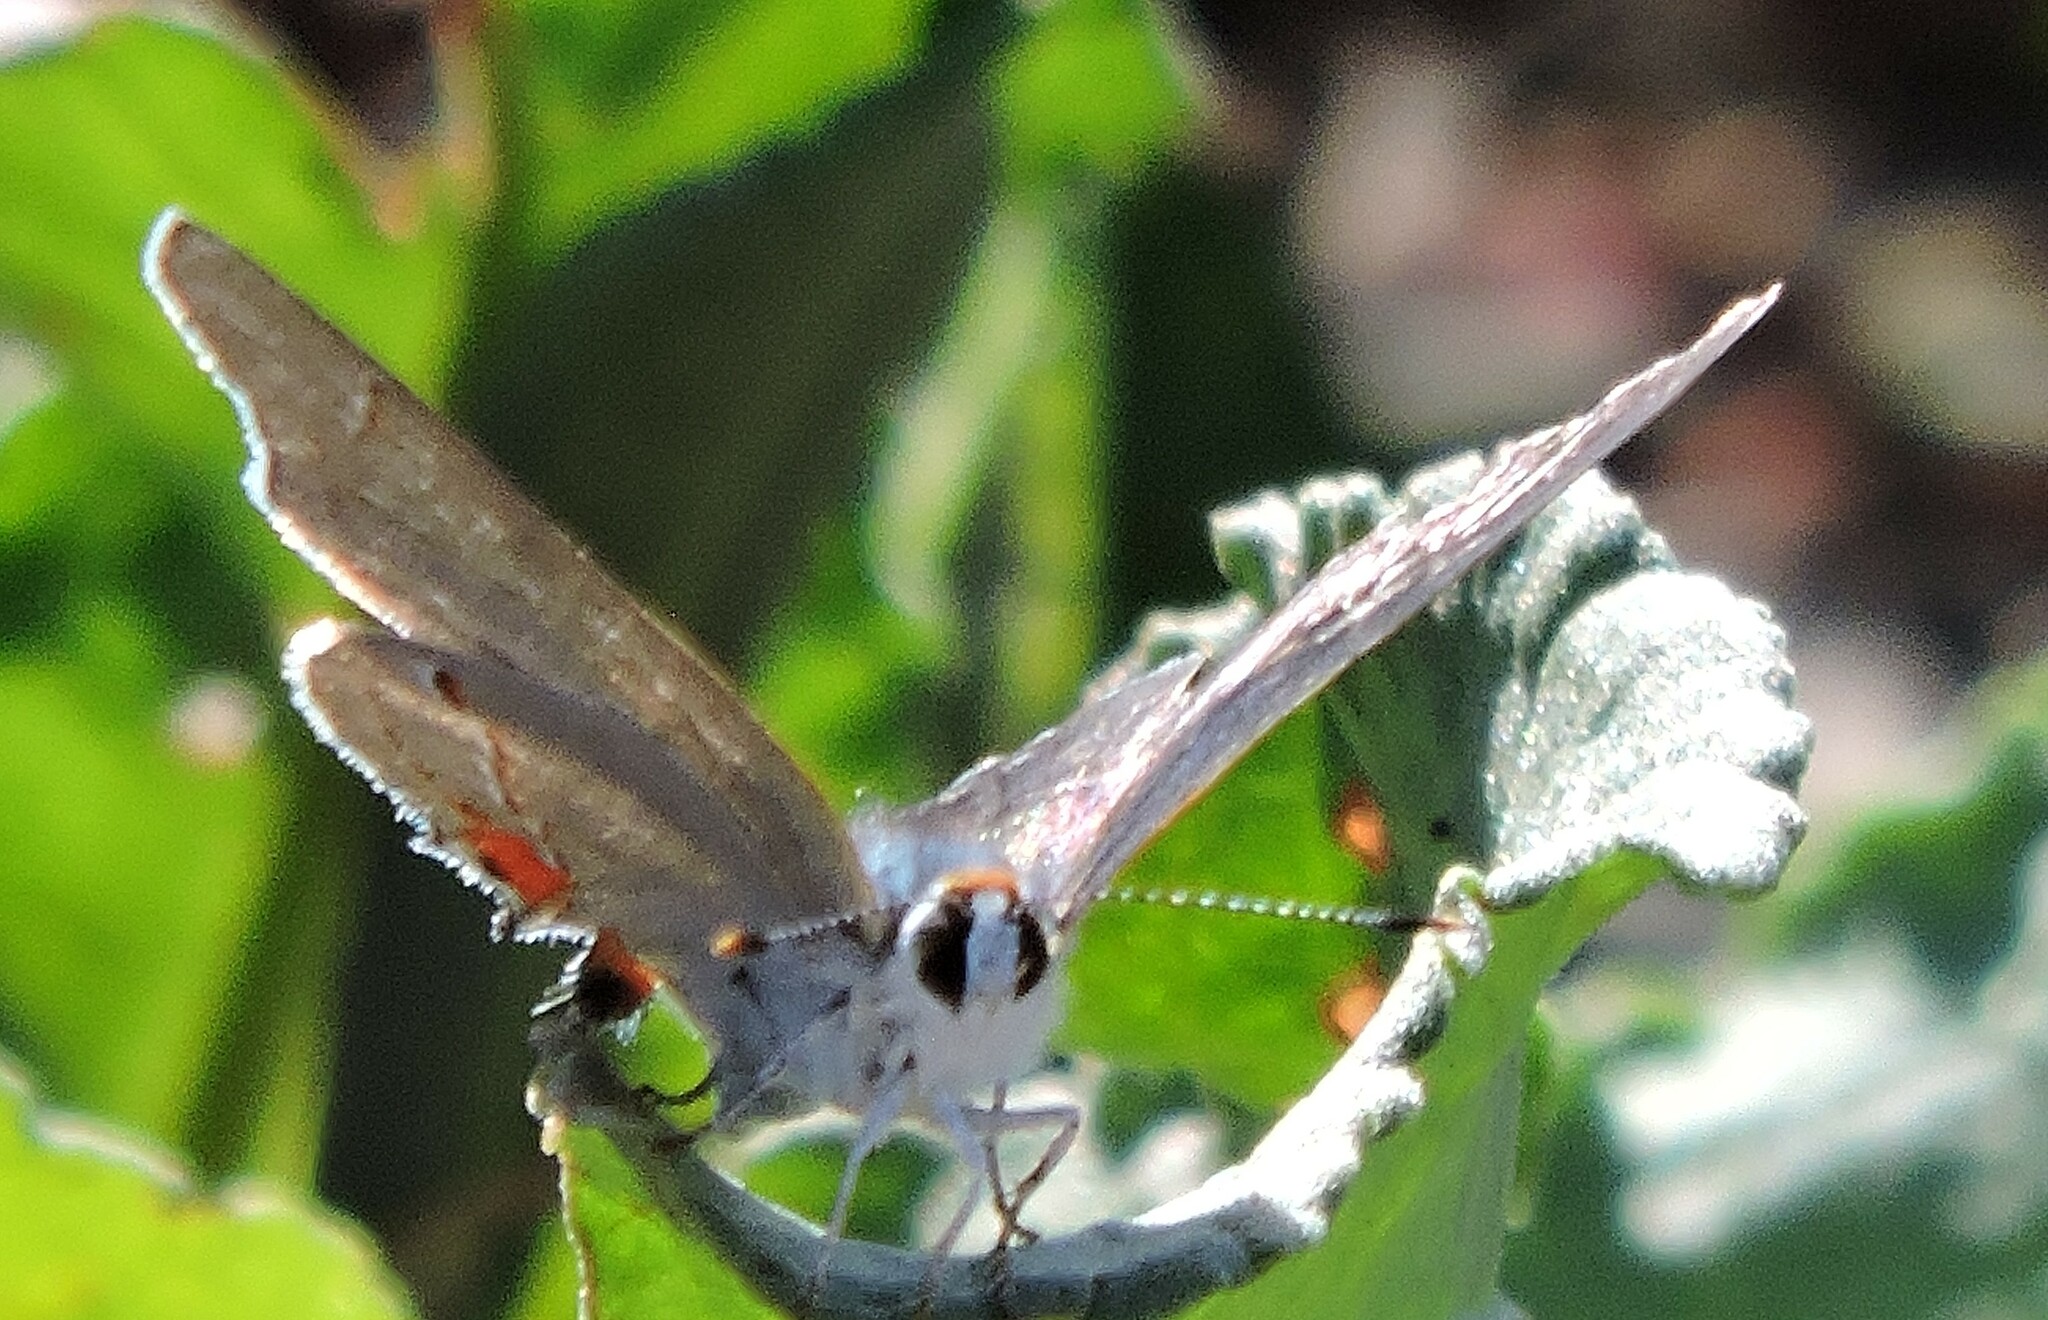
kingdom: Animalia
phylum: Arthropoda
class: Insecta
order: Lepidoptera
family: Lycaenidae
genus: Strymon
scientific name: Strymon melinus
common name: Gray hairstreak
